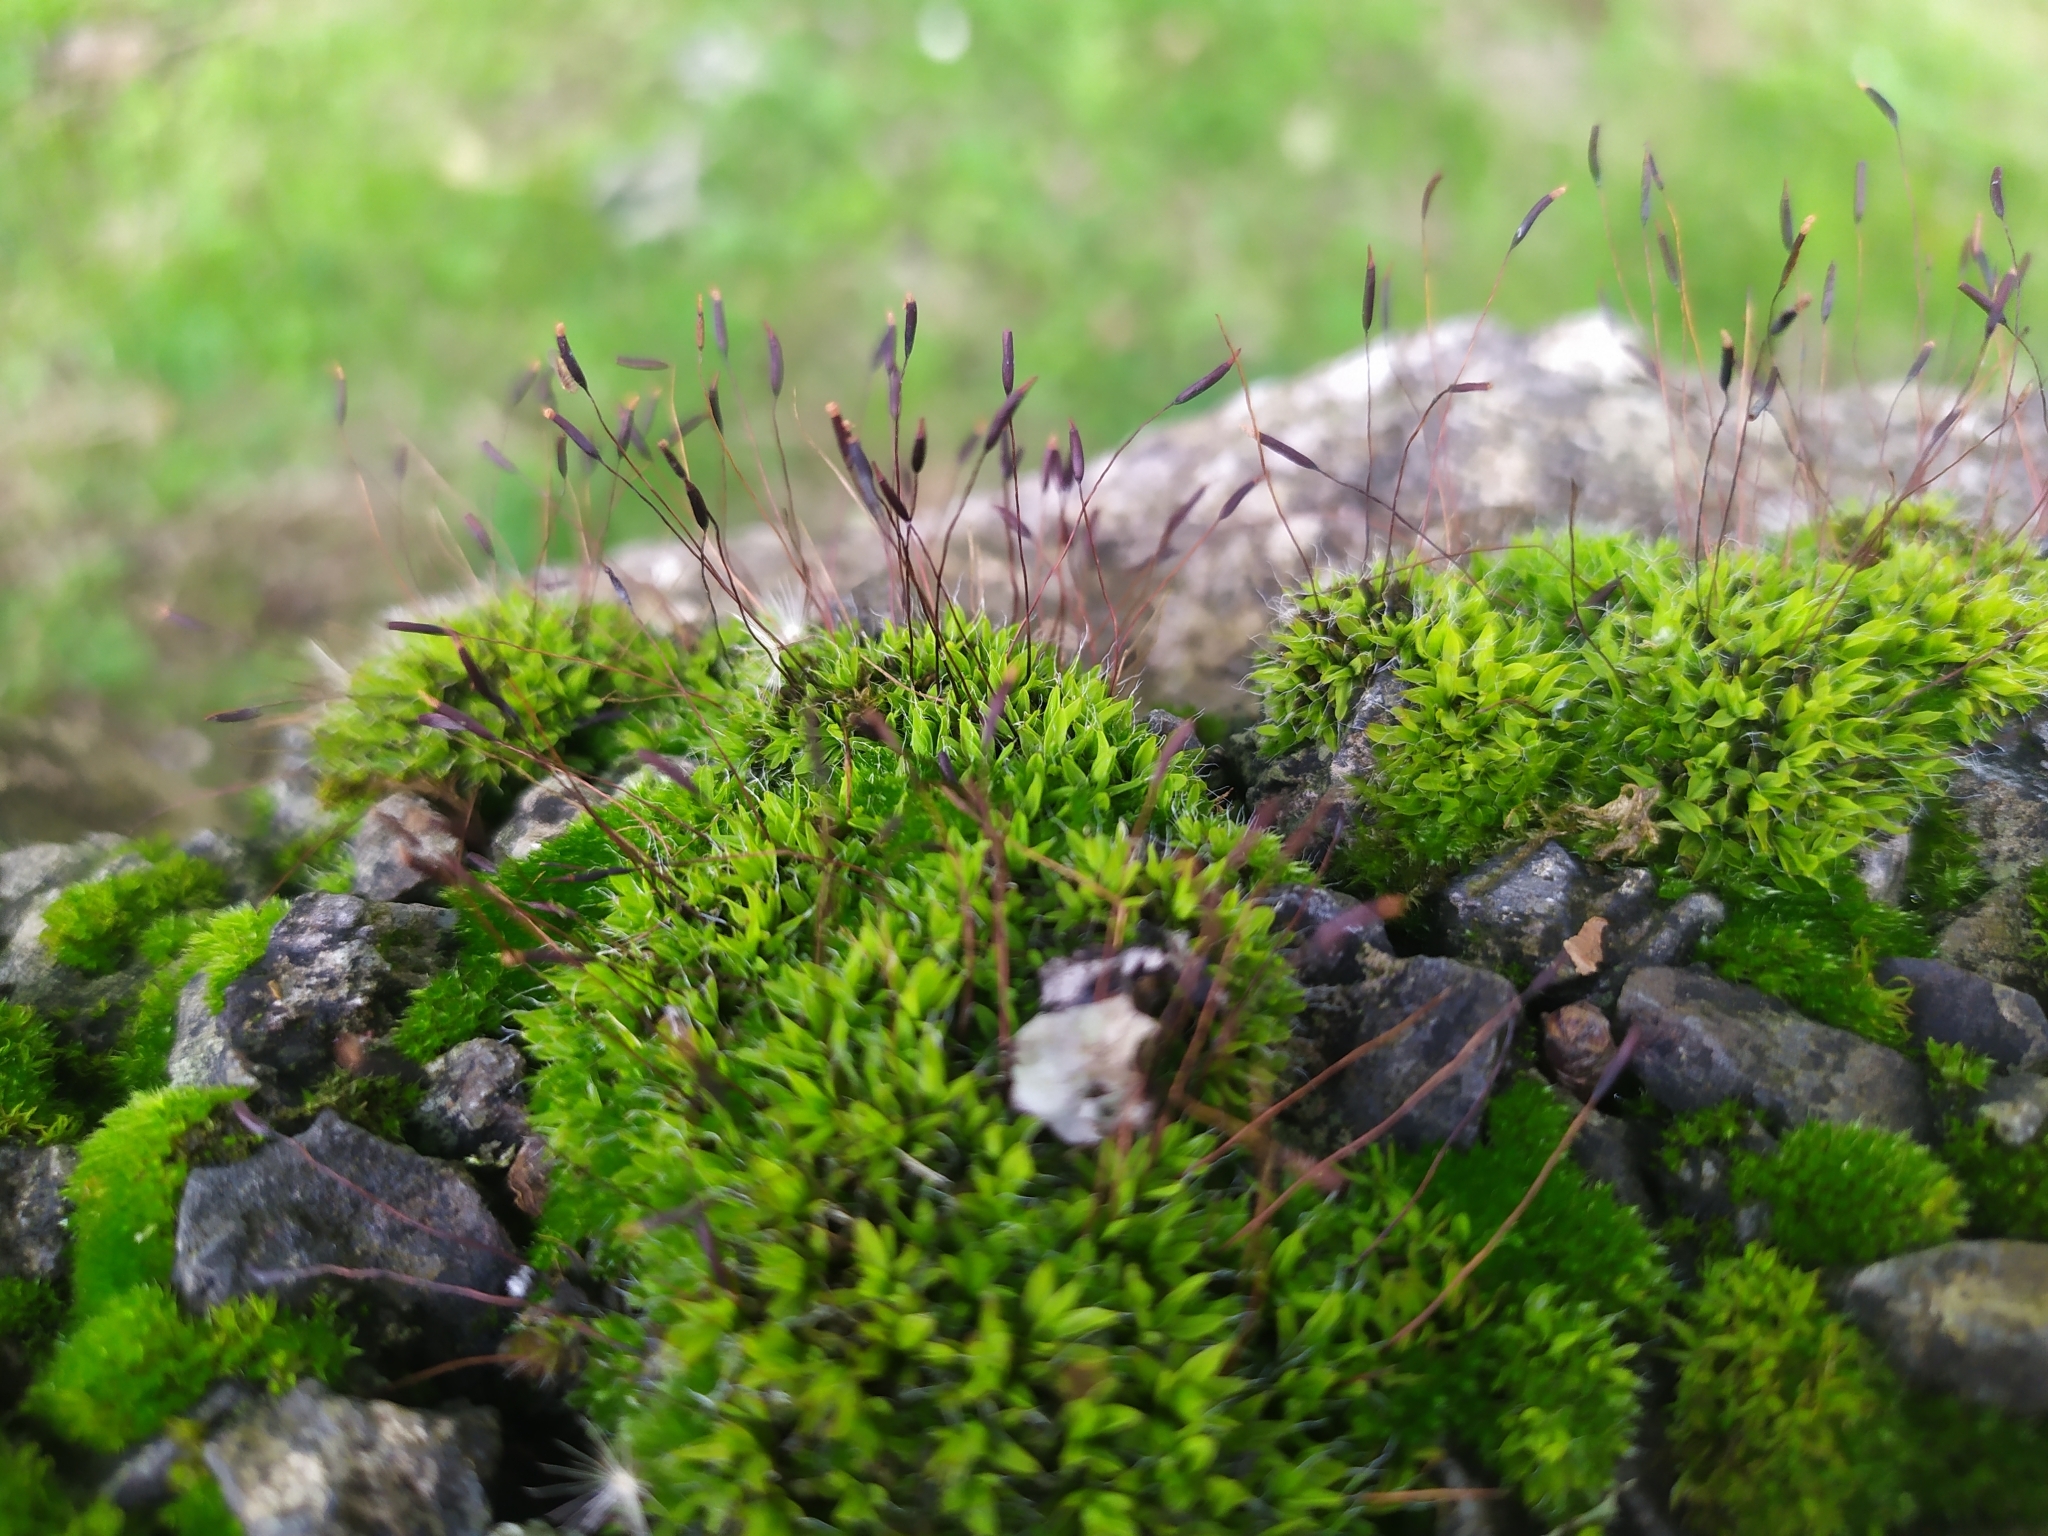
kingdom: Plantae
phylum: Bryophyta
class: Bryopsida
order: Pottiales
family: Pottiaceae
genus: Tortula
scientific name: Tortula muralis
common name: Wall screw-moss
